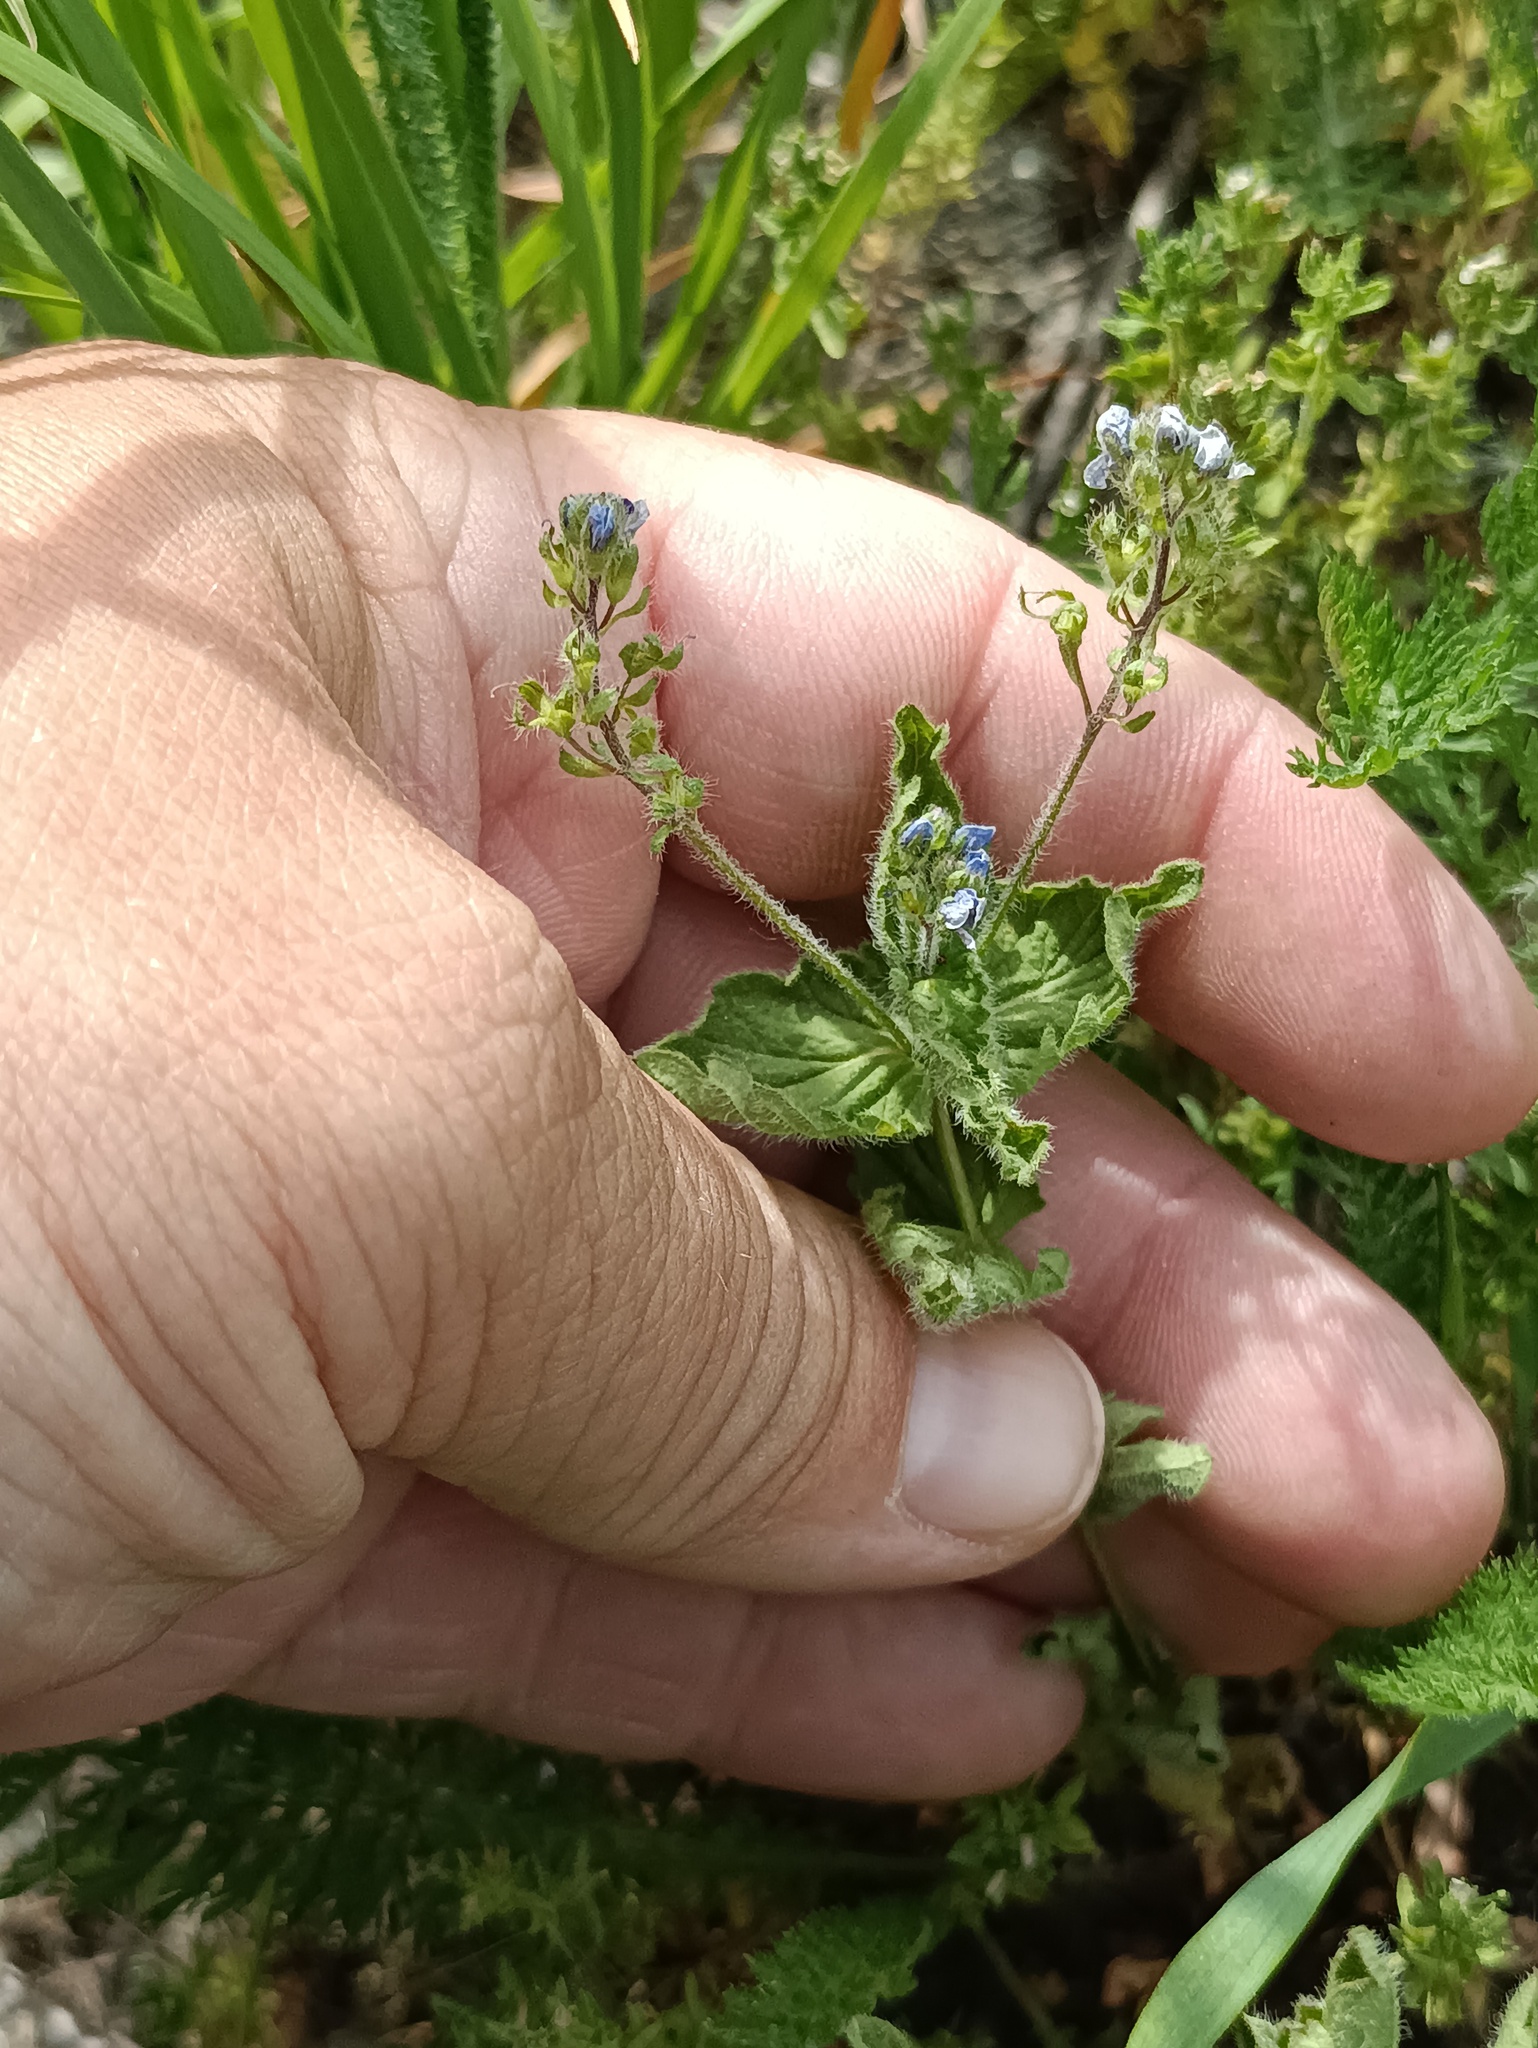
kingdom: Plantae
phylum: Tracheophyta
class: Magnoliopsida
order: Lamiales
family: Plantaginaceae
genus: Veronica
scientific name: Veronica chamaedrys
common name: Germander speedwell
